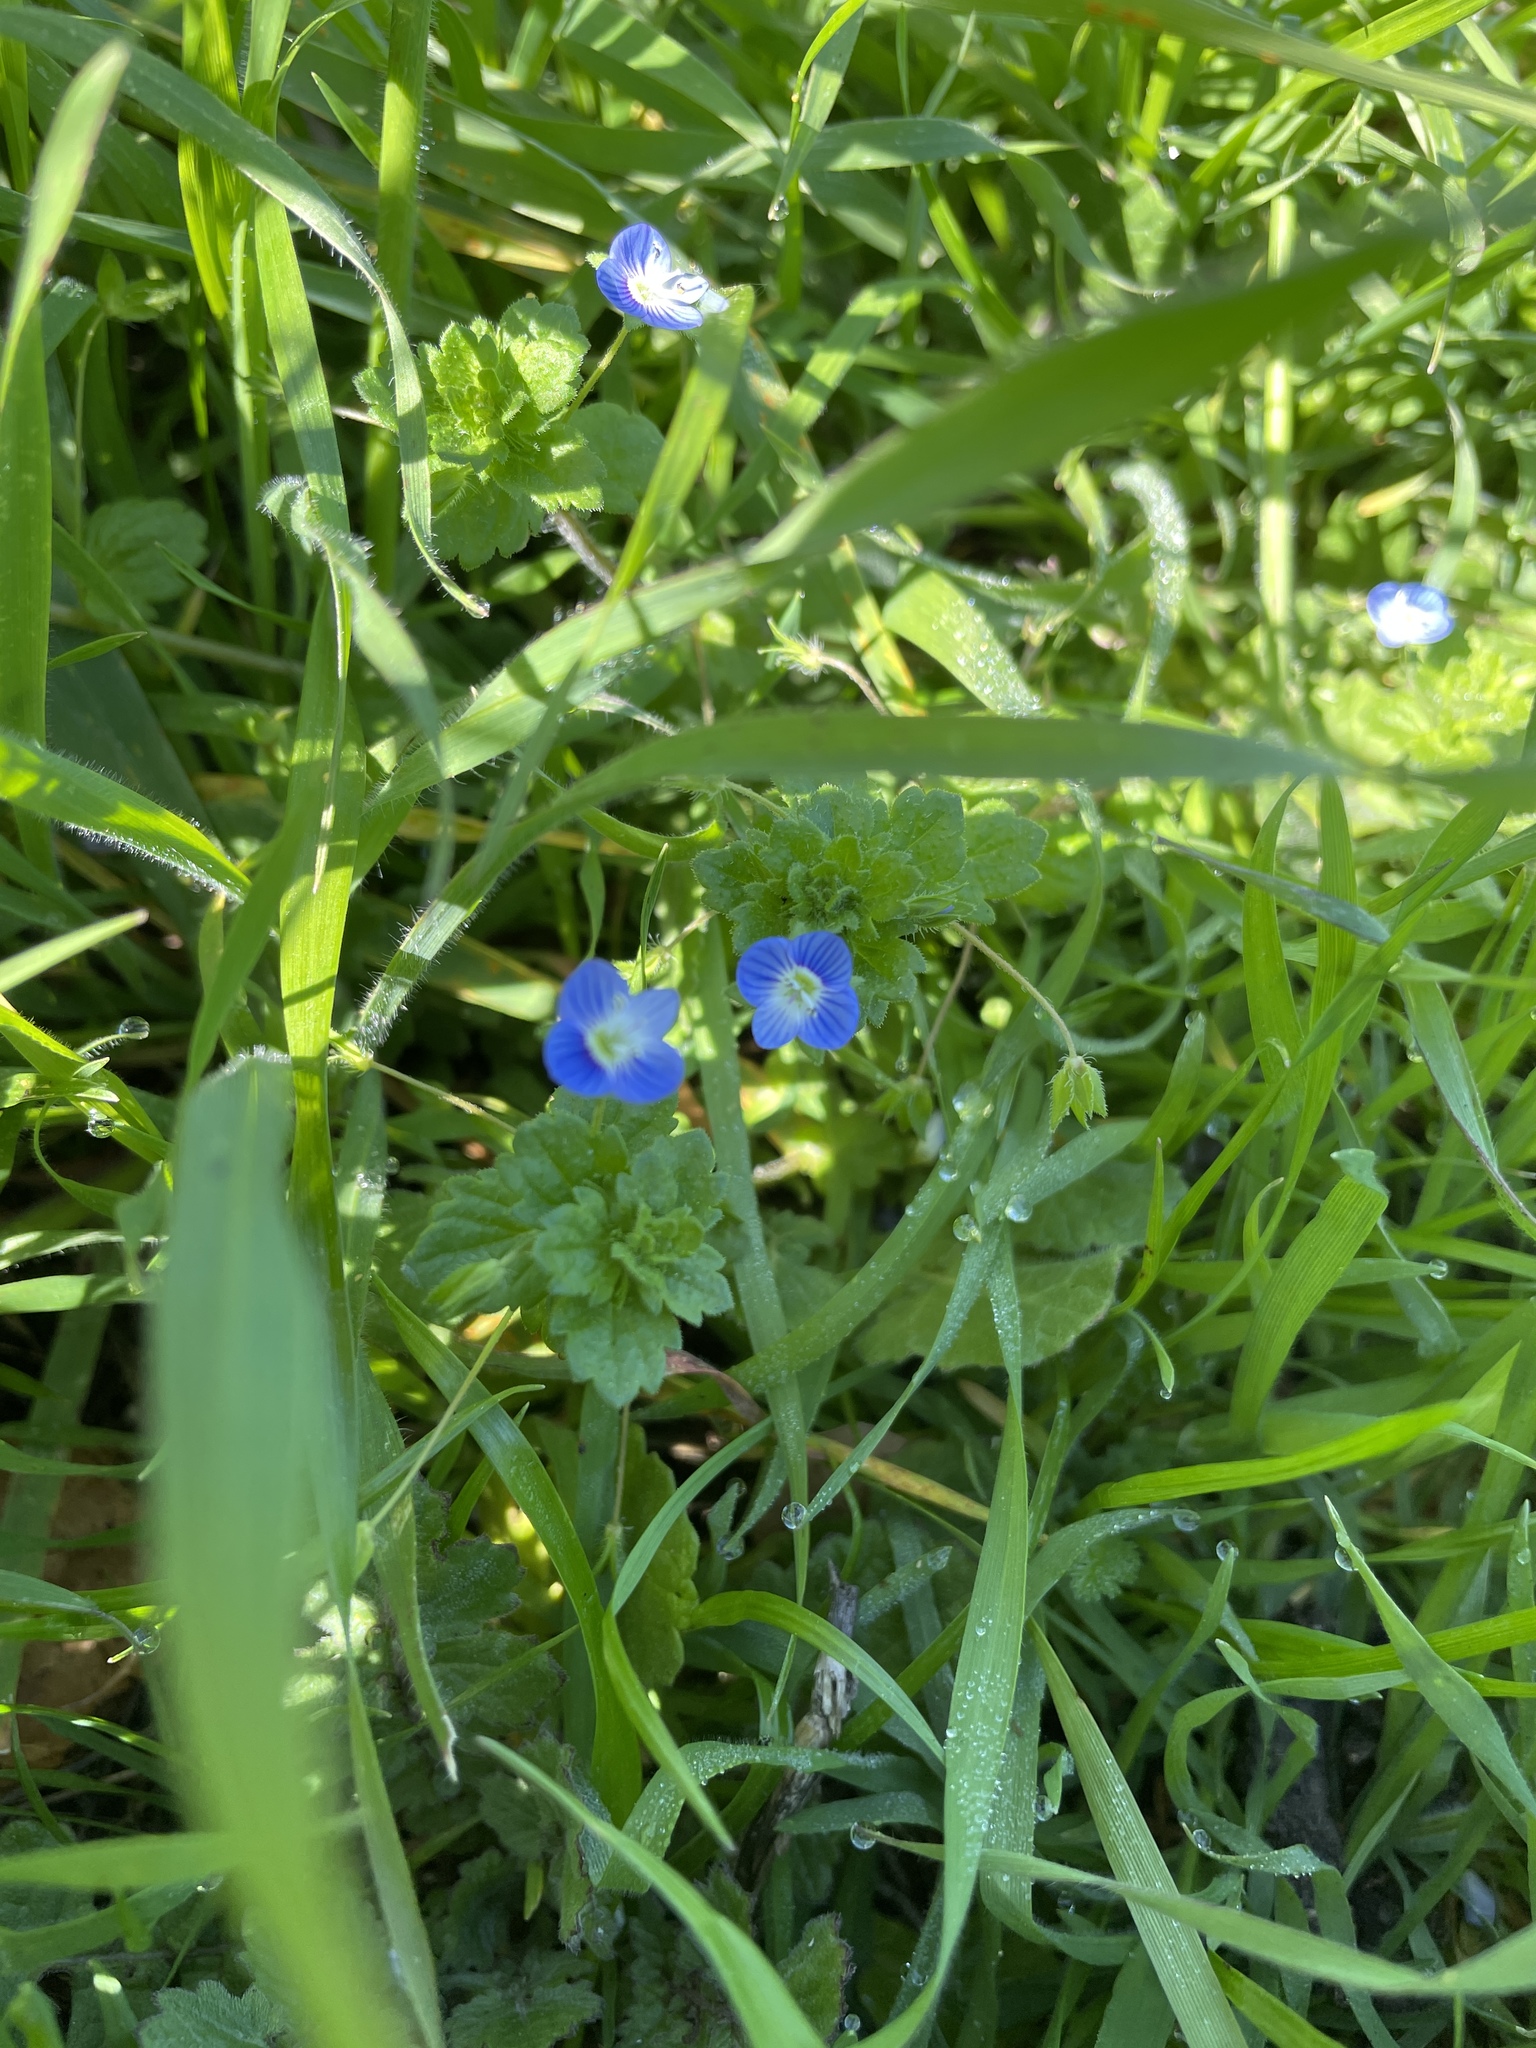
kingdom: Plantae
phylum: Tracheophyta
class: Magnoliopsida
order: Lamiales
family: Plantaginaceae
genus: Veronica
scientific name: Veronica persica
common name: Common field-speedwell
